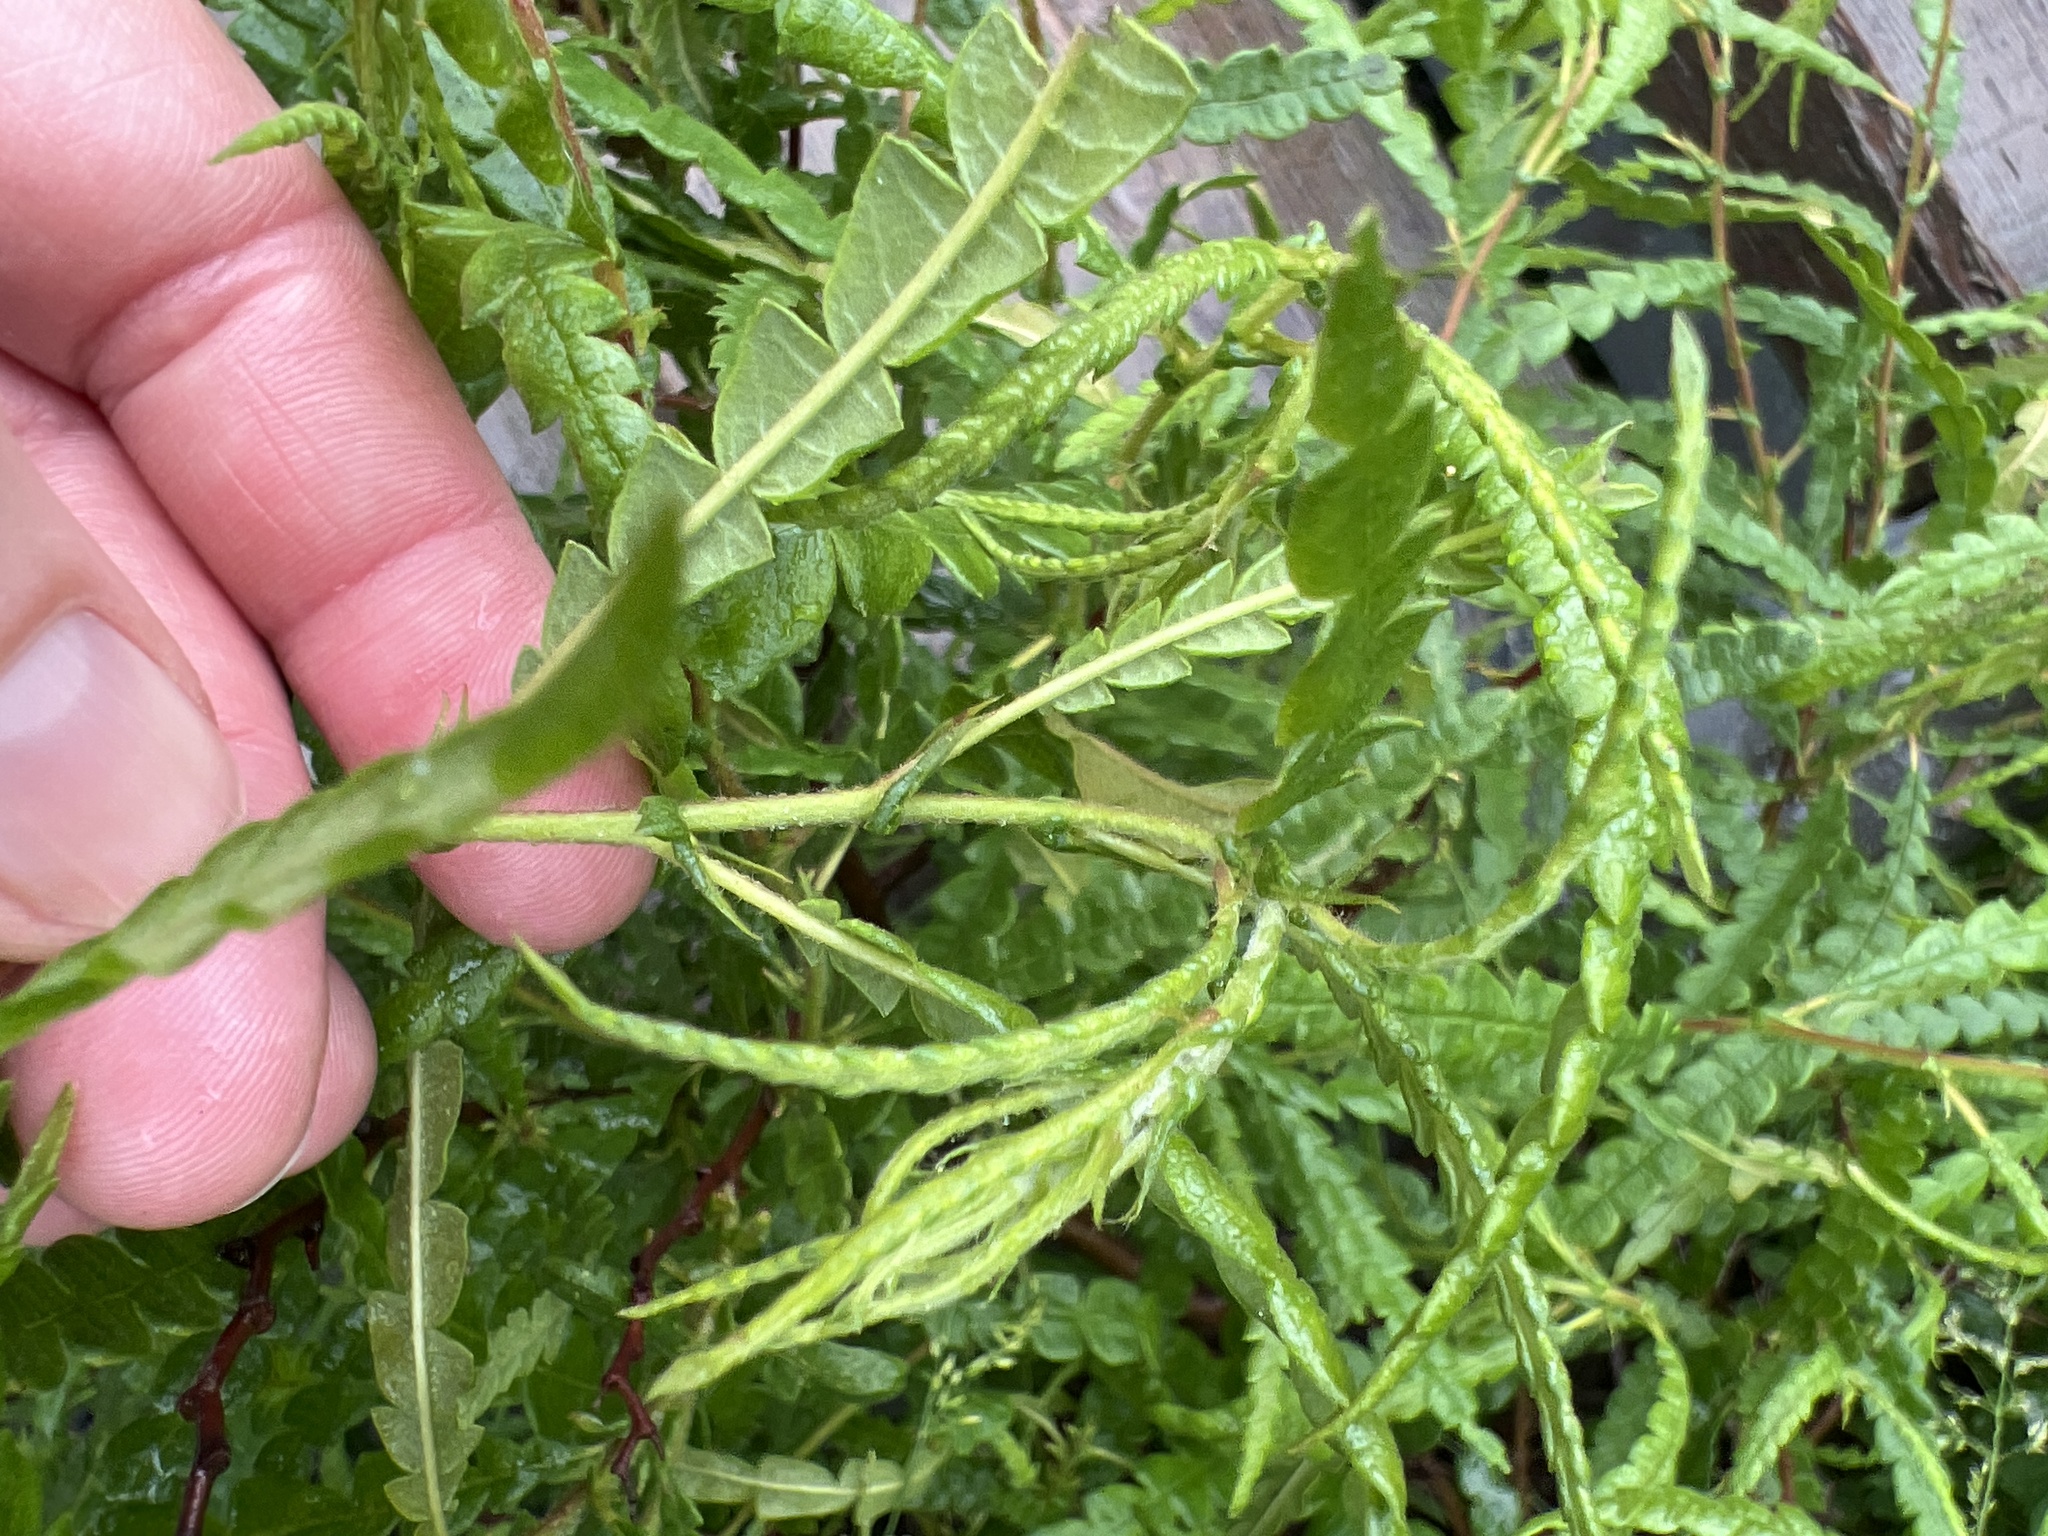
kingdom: Plantae
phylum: Tracheophyta
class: Magnoliopsida
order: Fagales
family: Myricaceae
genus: Comptonia
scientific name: Comptonia peregrina
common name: Sweet-fern
